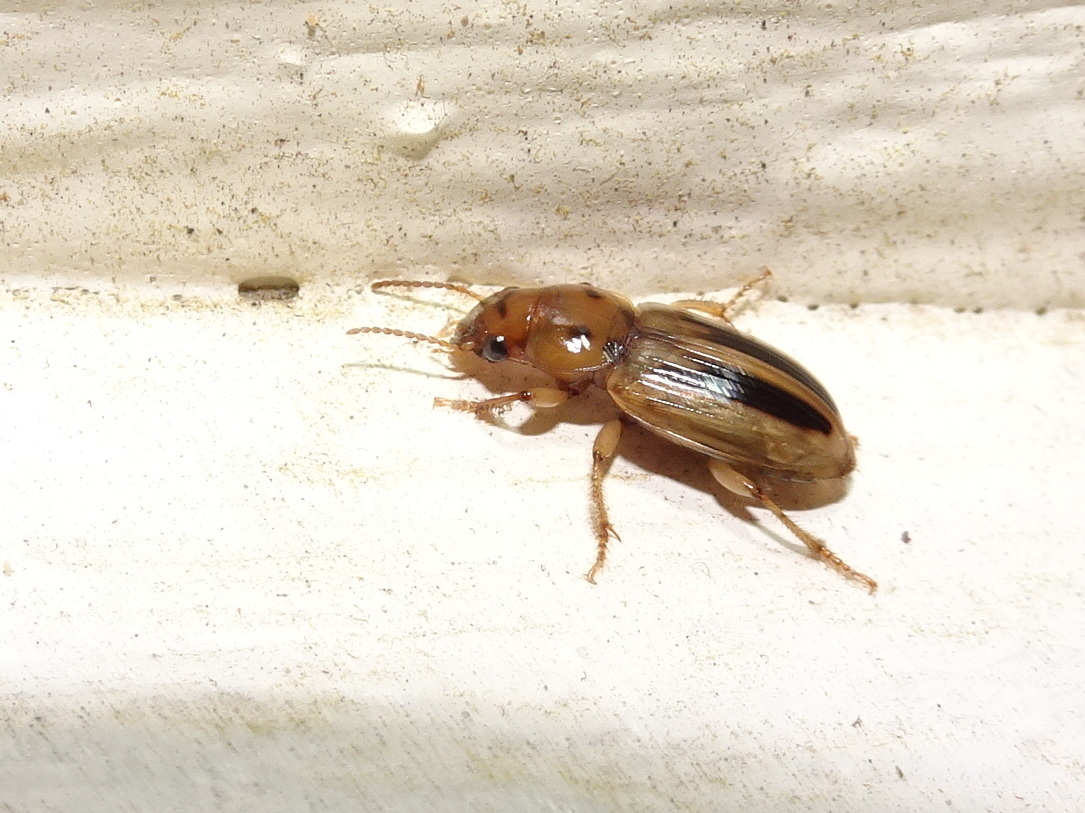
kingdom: Animalia
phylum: Arthropoda
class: Insecta
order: Coleoptera
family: Carabidae
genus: Stenolophus
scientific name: Stenolophus lineola
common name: Lined stenolophus
